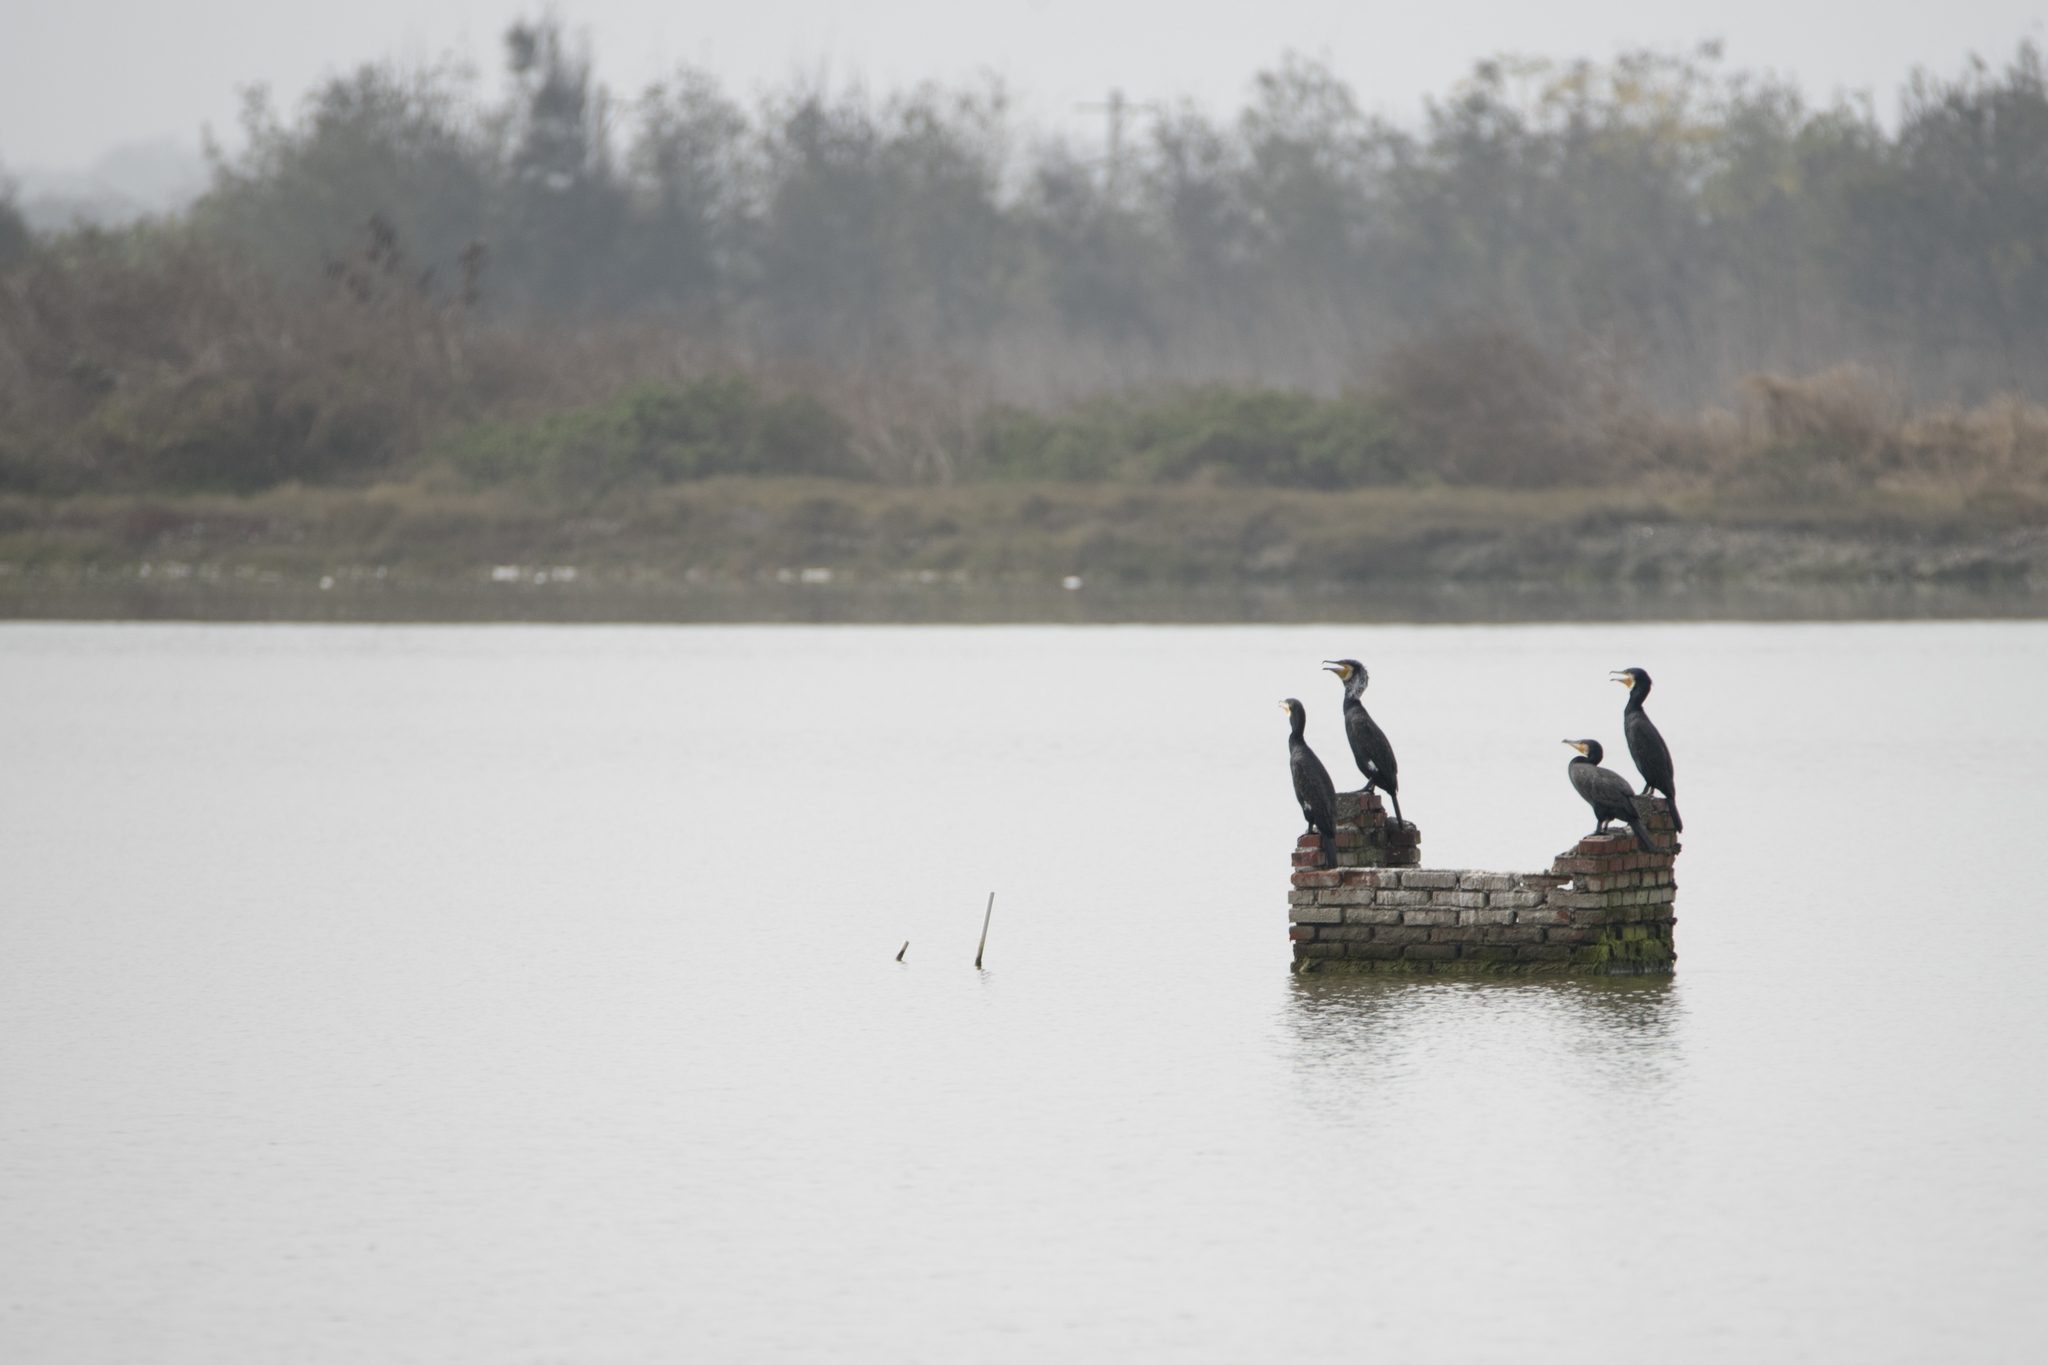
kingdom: Animalia
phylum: Chordata
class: Aves
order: Suliformes
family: Phalacrocoracidae
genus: Phalacrocorax
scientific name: Phalacrocorax carbo
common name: Great cormorant
